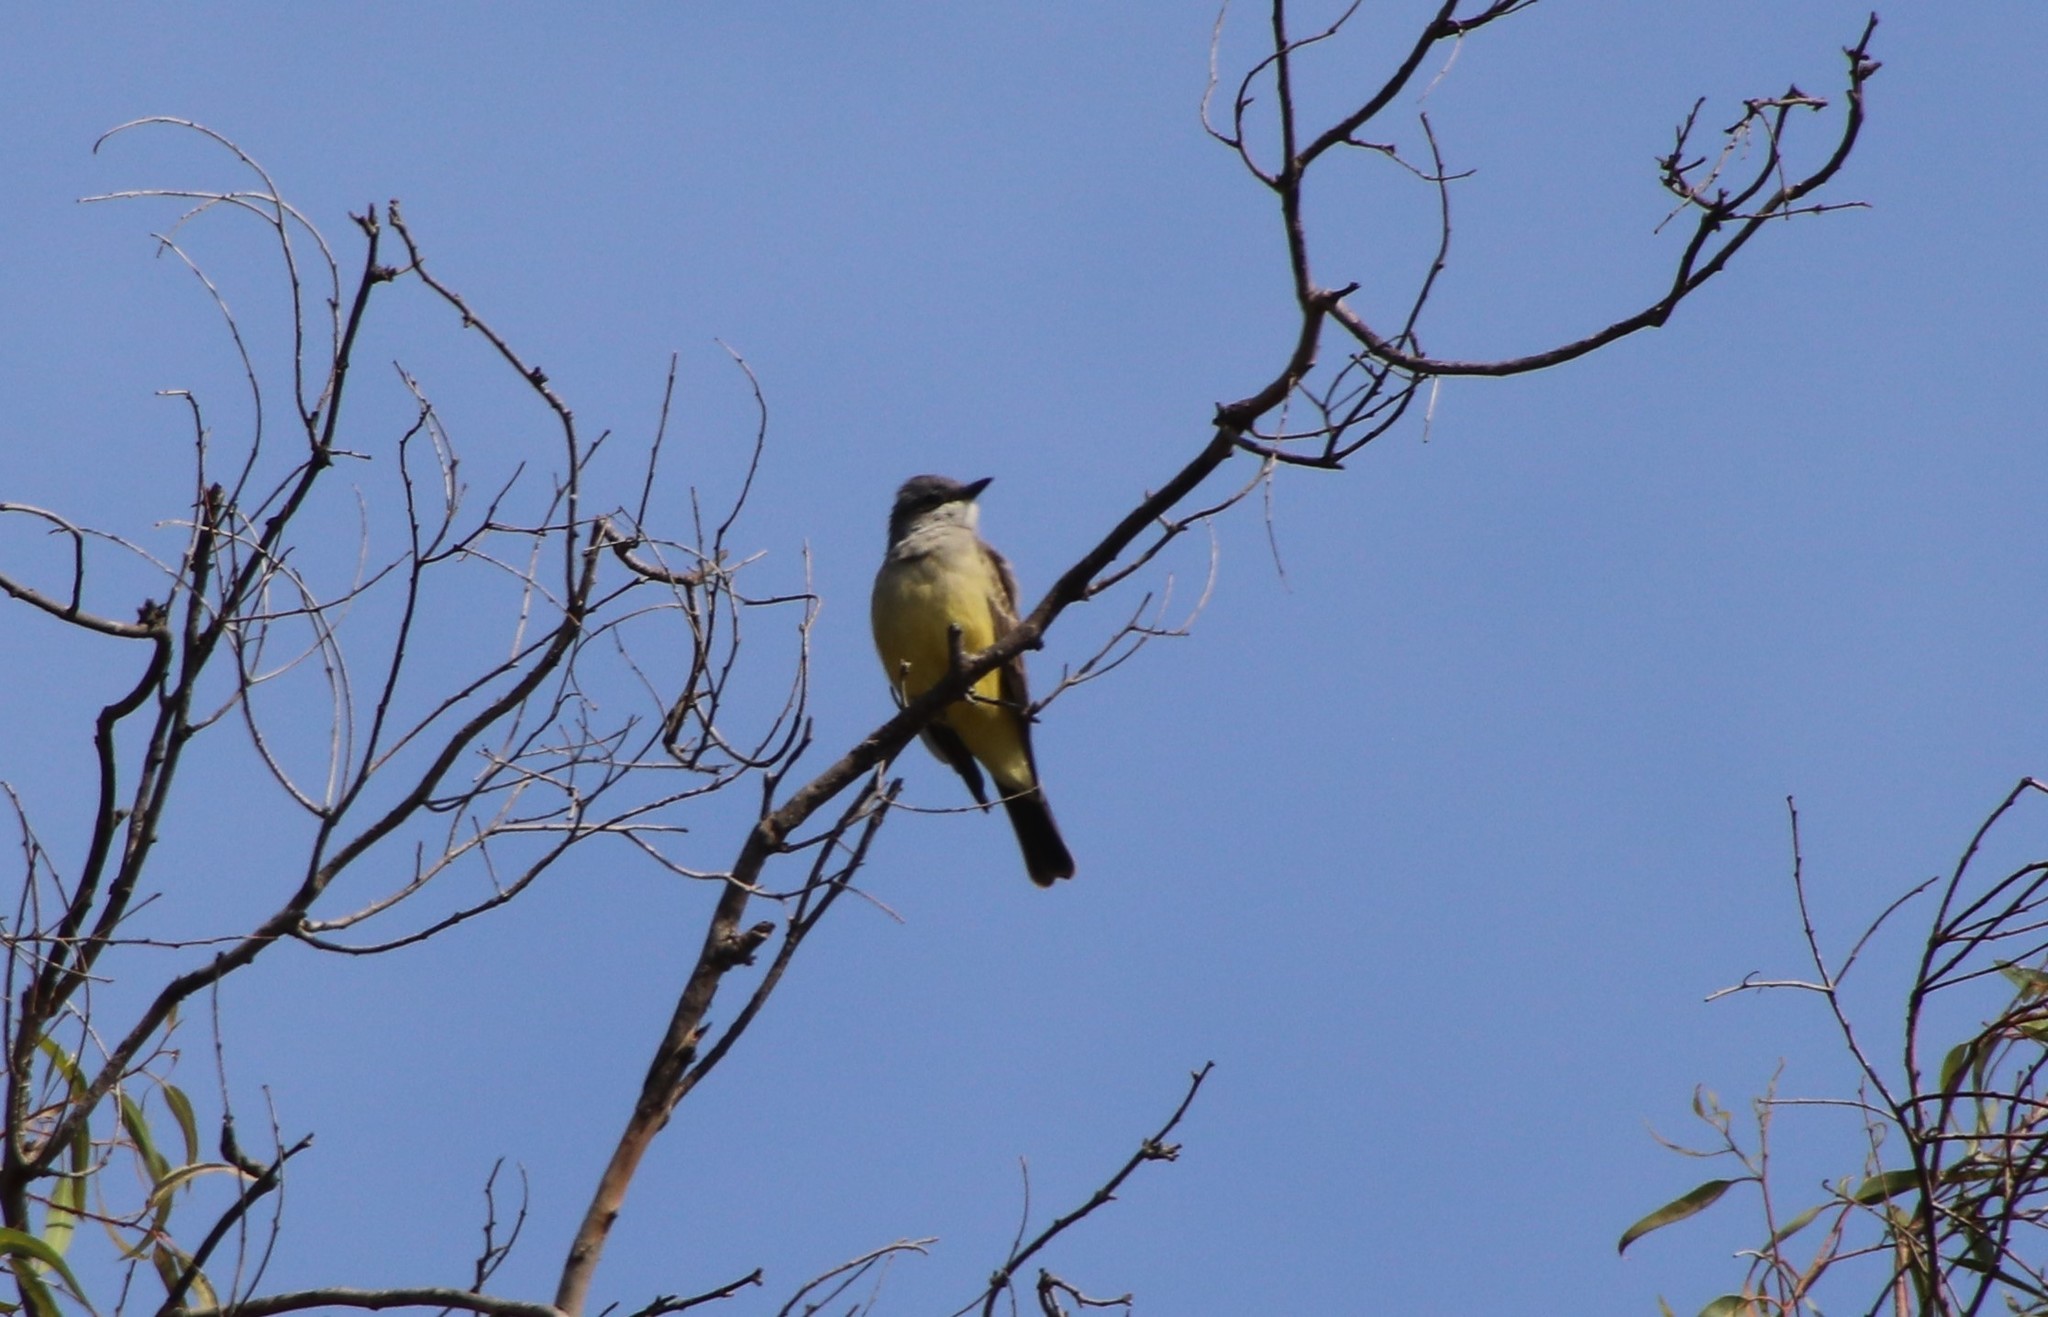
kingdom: Animalia
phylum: Chordata
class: Aves
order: Passeriformes
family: Tyrannidae
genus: Tyrannus
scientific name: Tyrannus vociferans
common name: Cassin's kingbird
